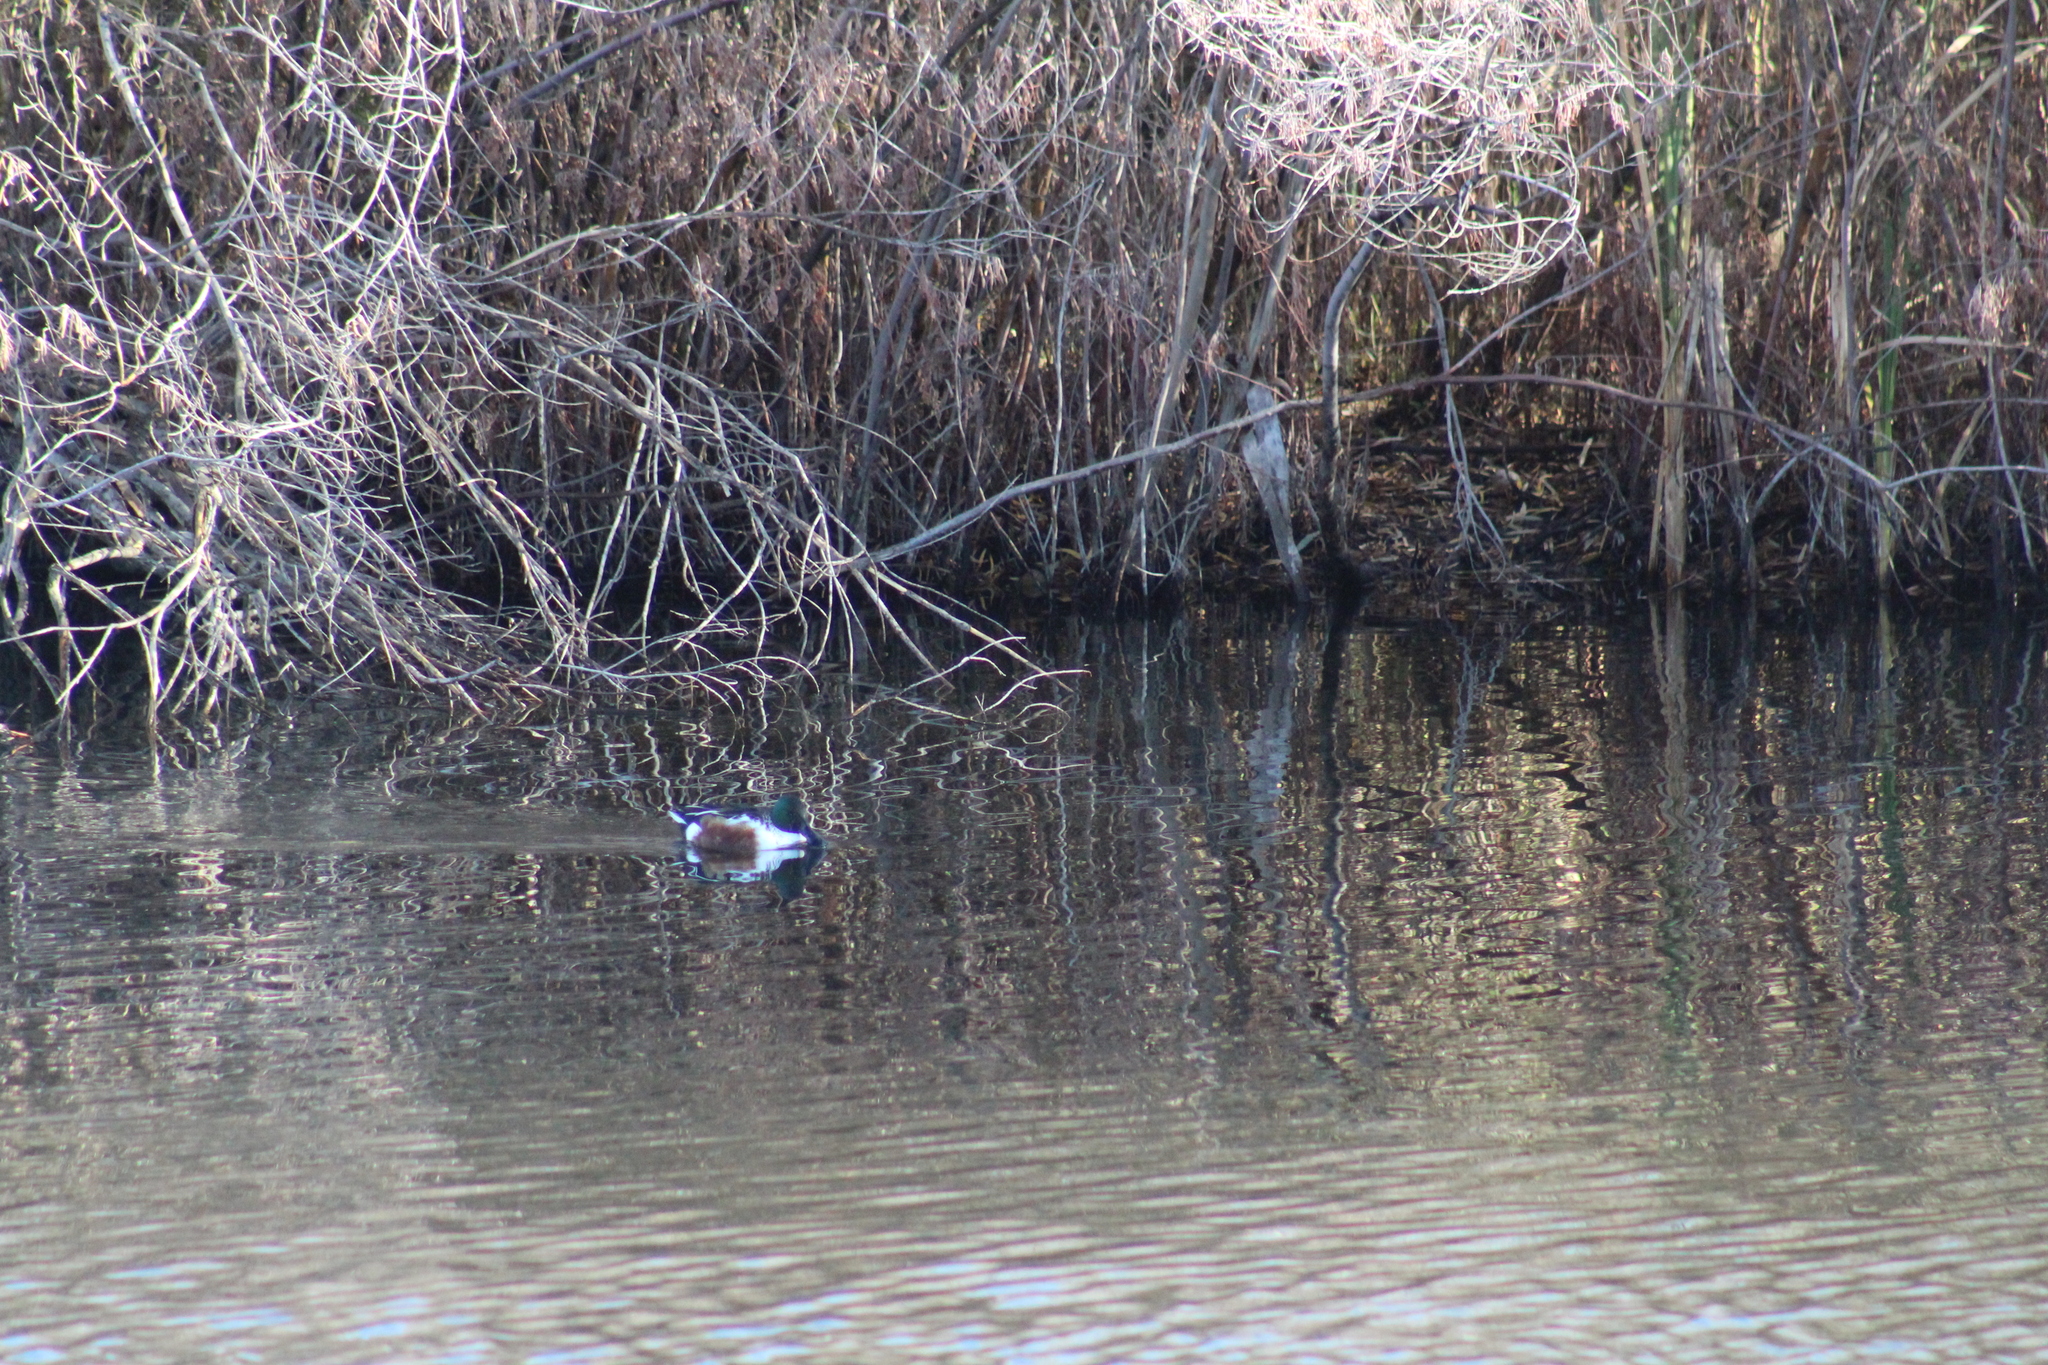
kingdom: Animalia
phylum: Chordata
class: Aves
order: Anseriformes
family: Anatidae
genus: Spatula
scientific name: Spatula clypeata
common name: Northern shoveler
